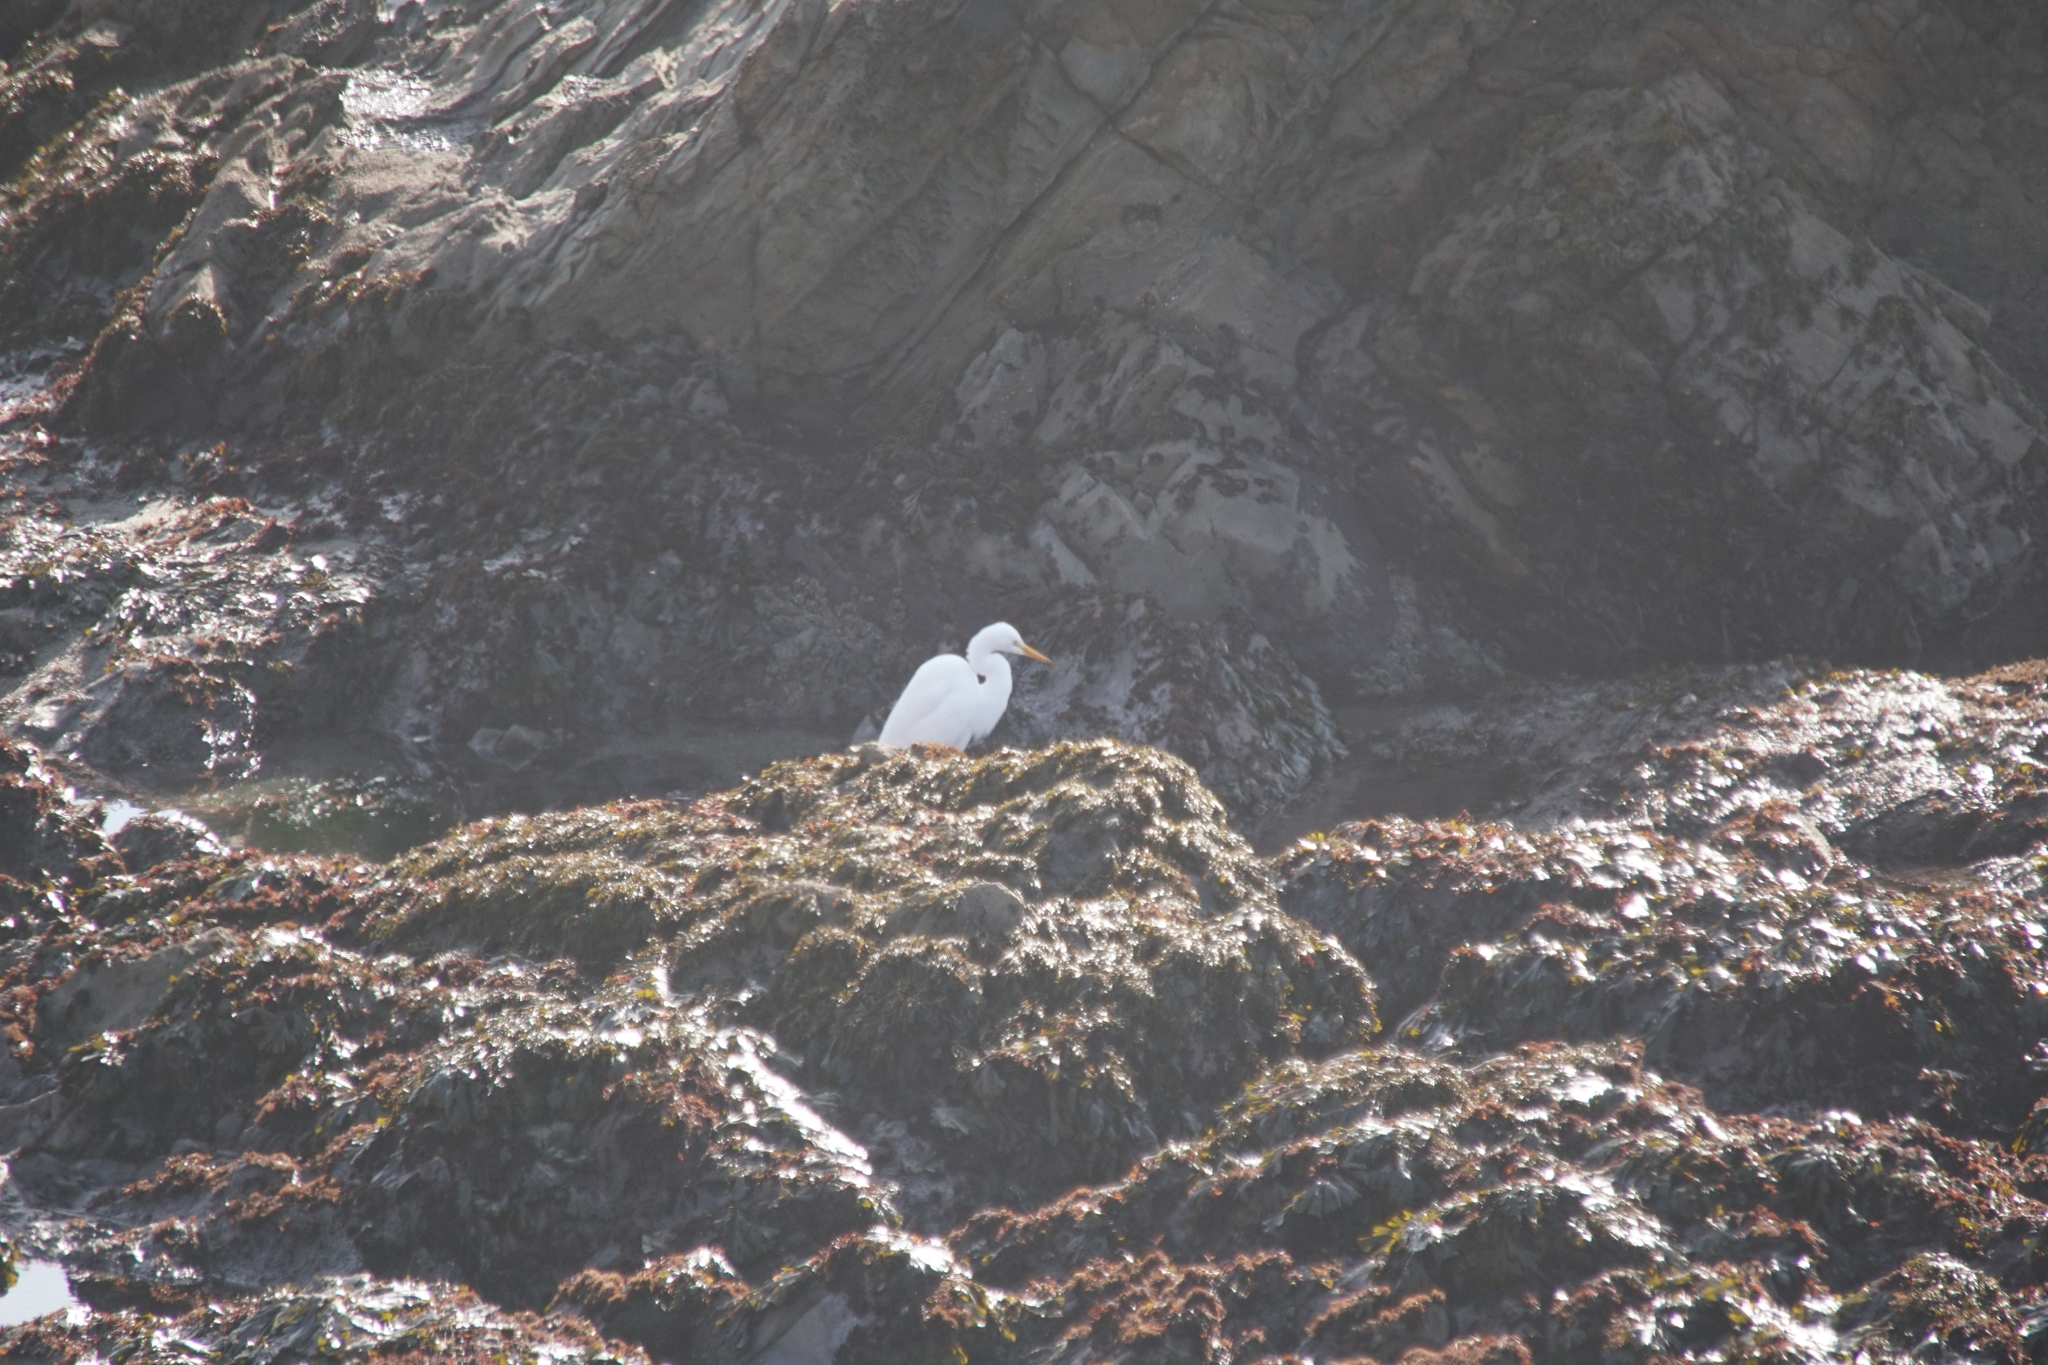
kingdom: Animalia
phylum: Chordata
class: Aves
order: Pelecaniformes
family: Ardeidae
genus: Ardea
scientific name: Ardea alba
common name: Great egret
